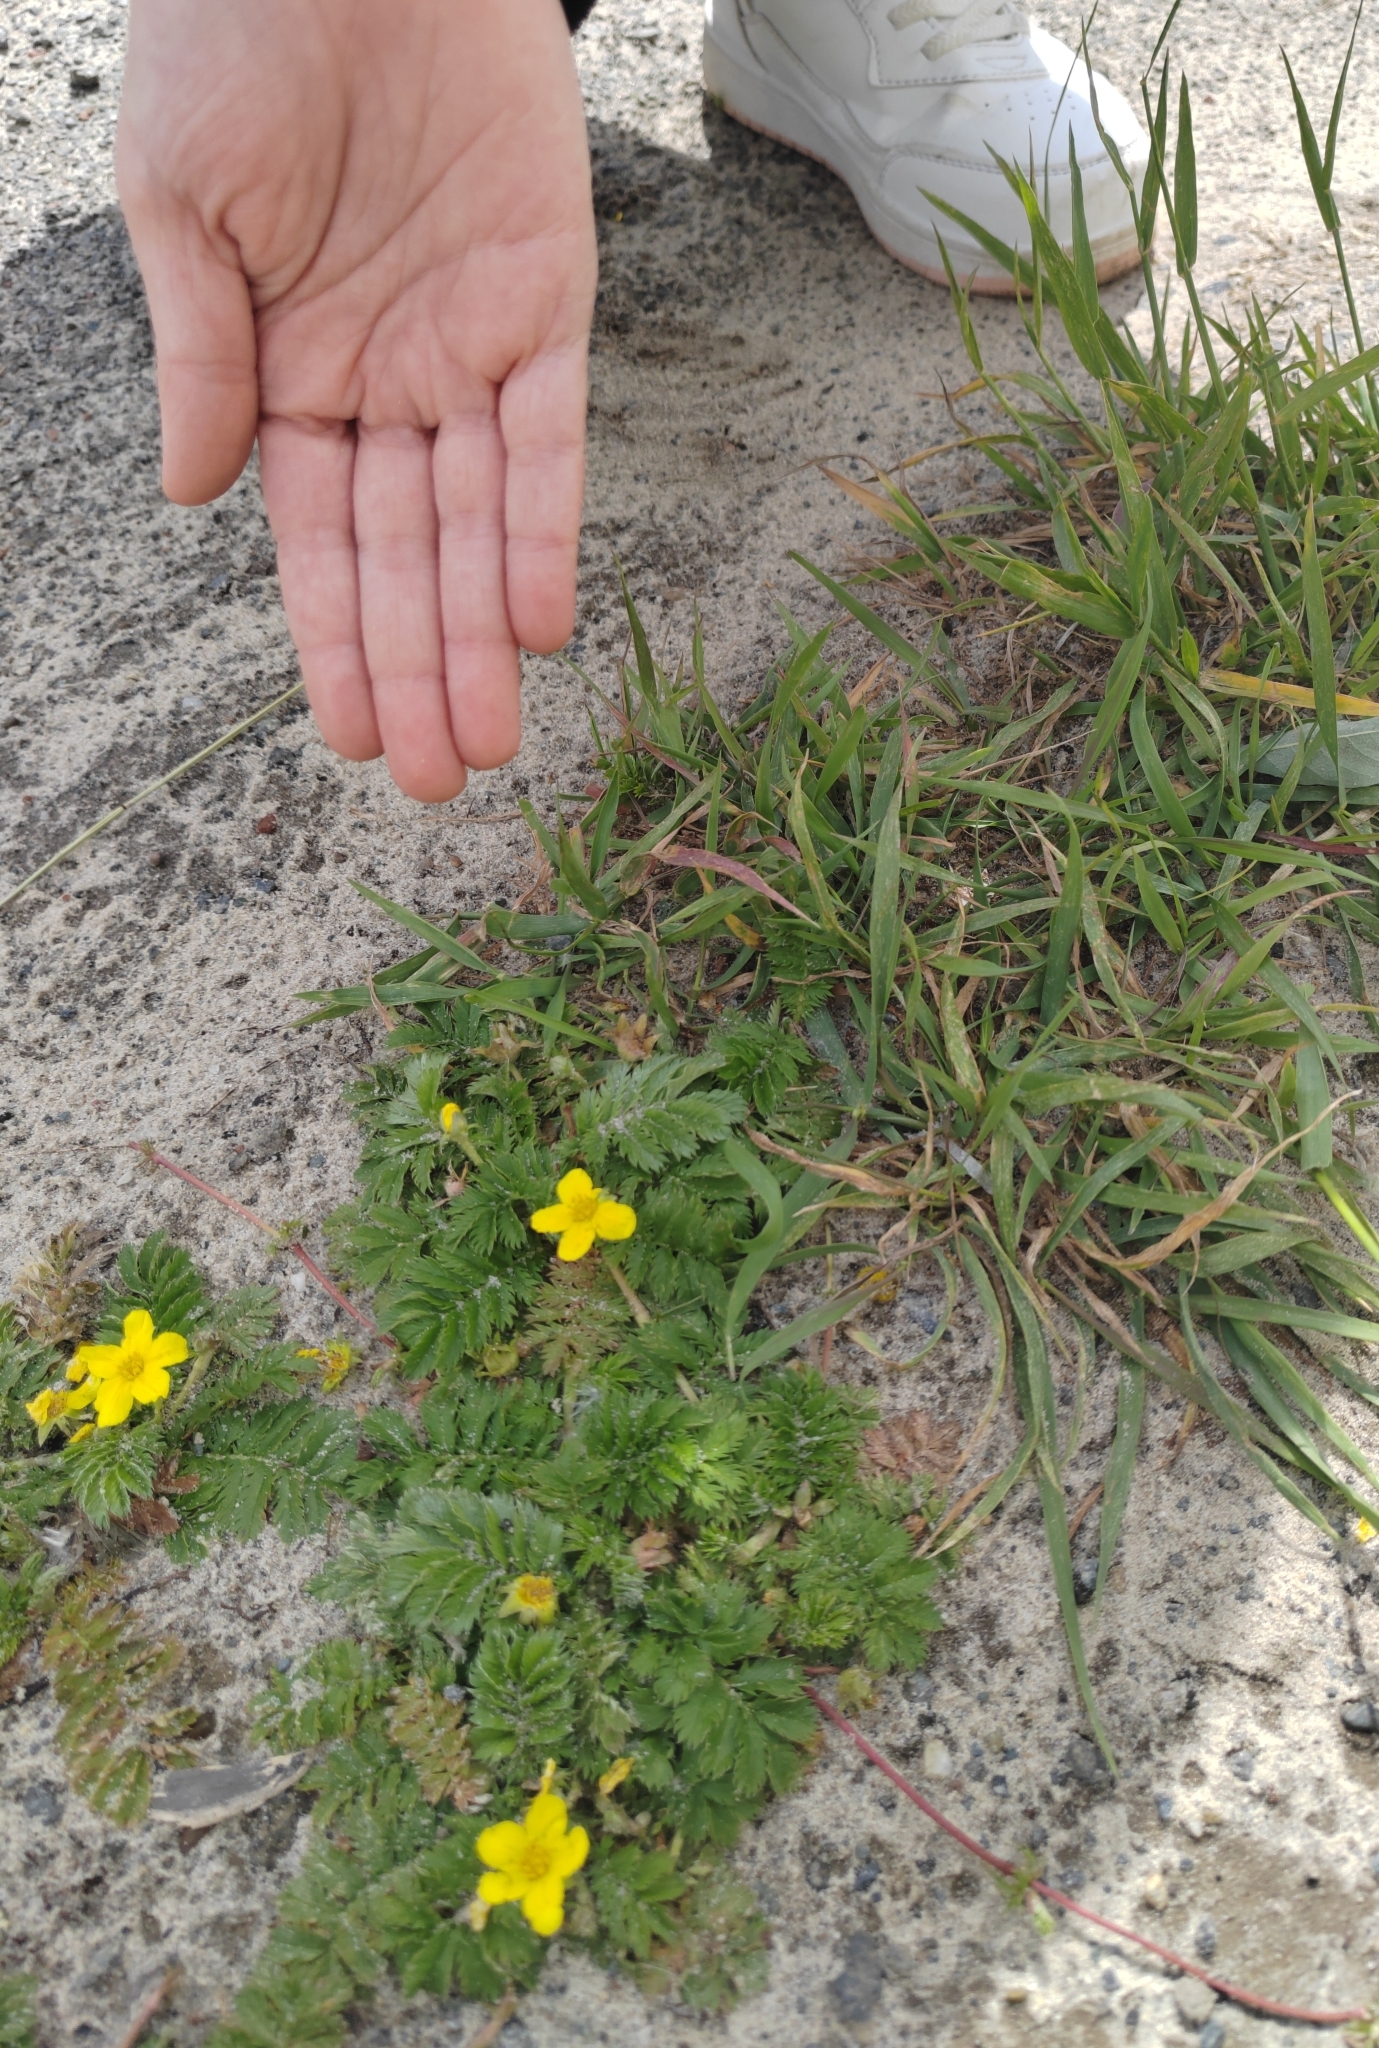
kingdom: Plantae
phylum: Tracheophyta
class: Magnoliopsida
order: Rosales
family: Rosaceae
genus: Argentina
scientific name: Argentina anserina
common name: Common silverweed
